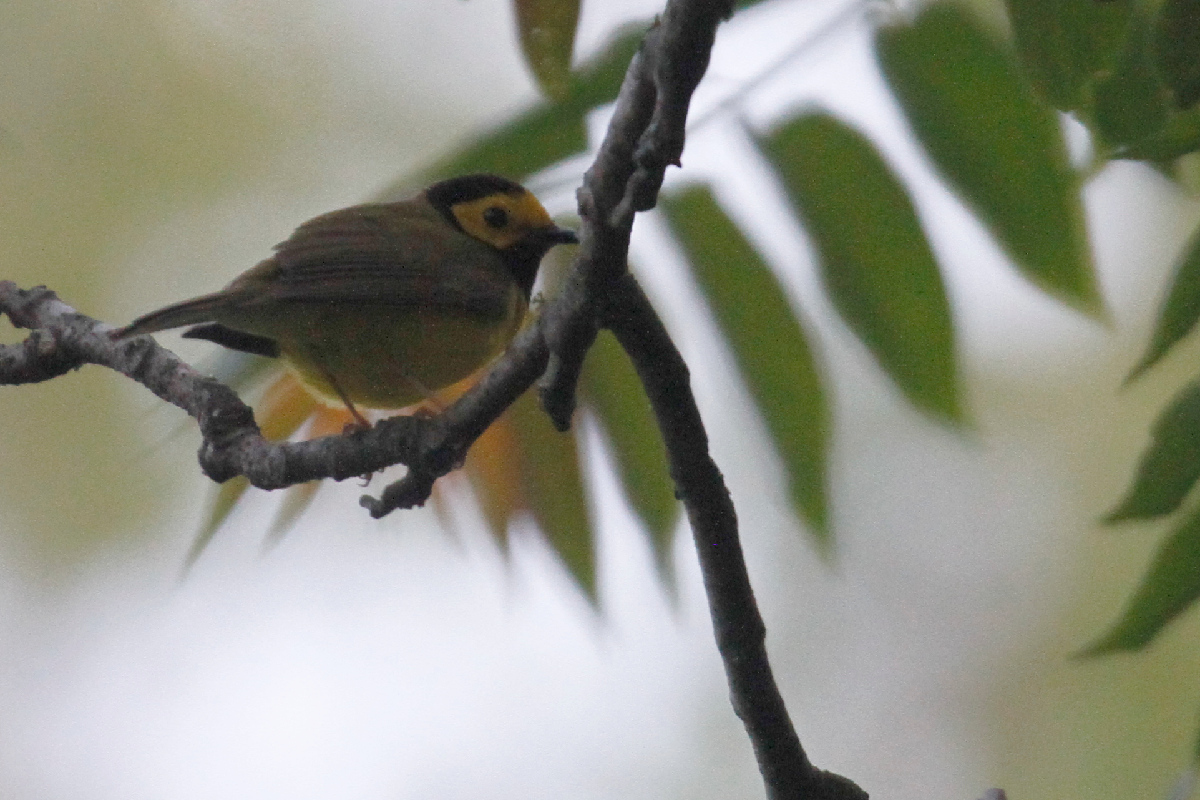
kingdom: Animalia
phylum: Chordata
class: Aves
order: Passeriformes
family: Parulidae
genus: Setophaga
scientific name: Setophaga citrina
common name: Hooded warbler
